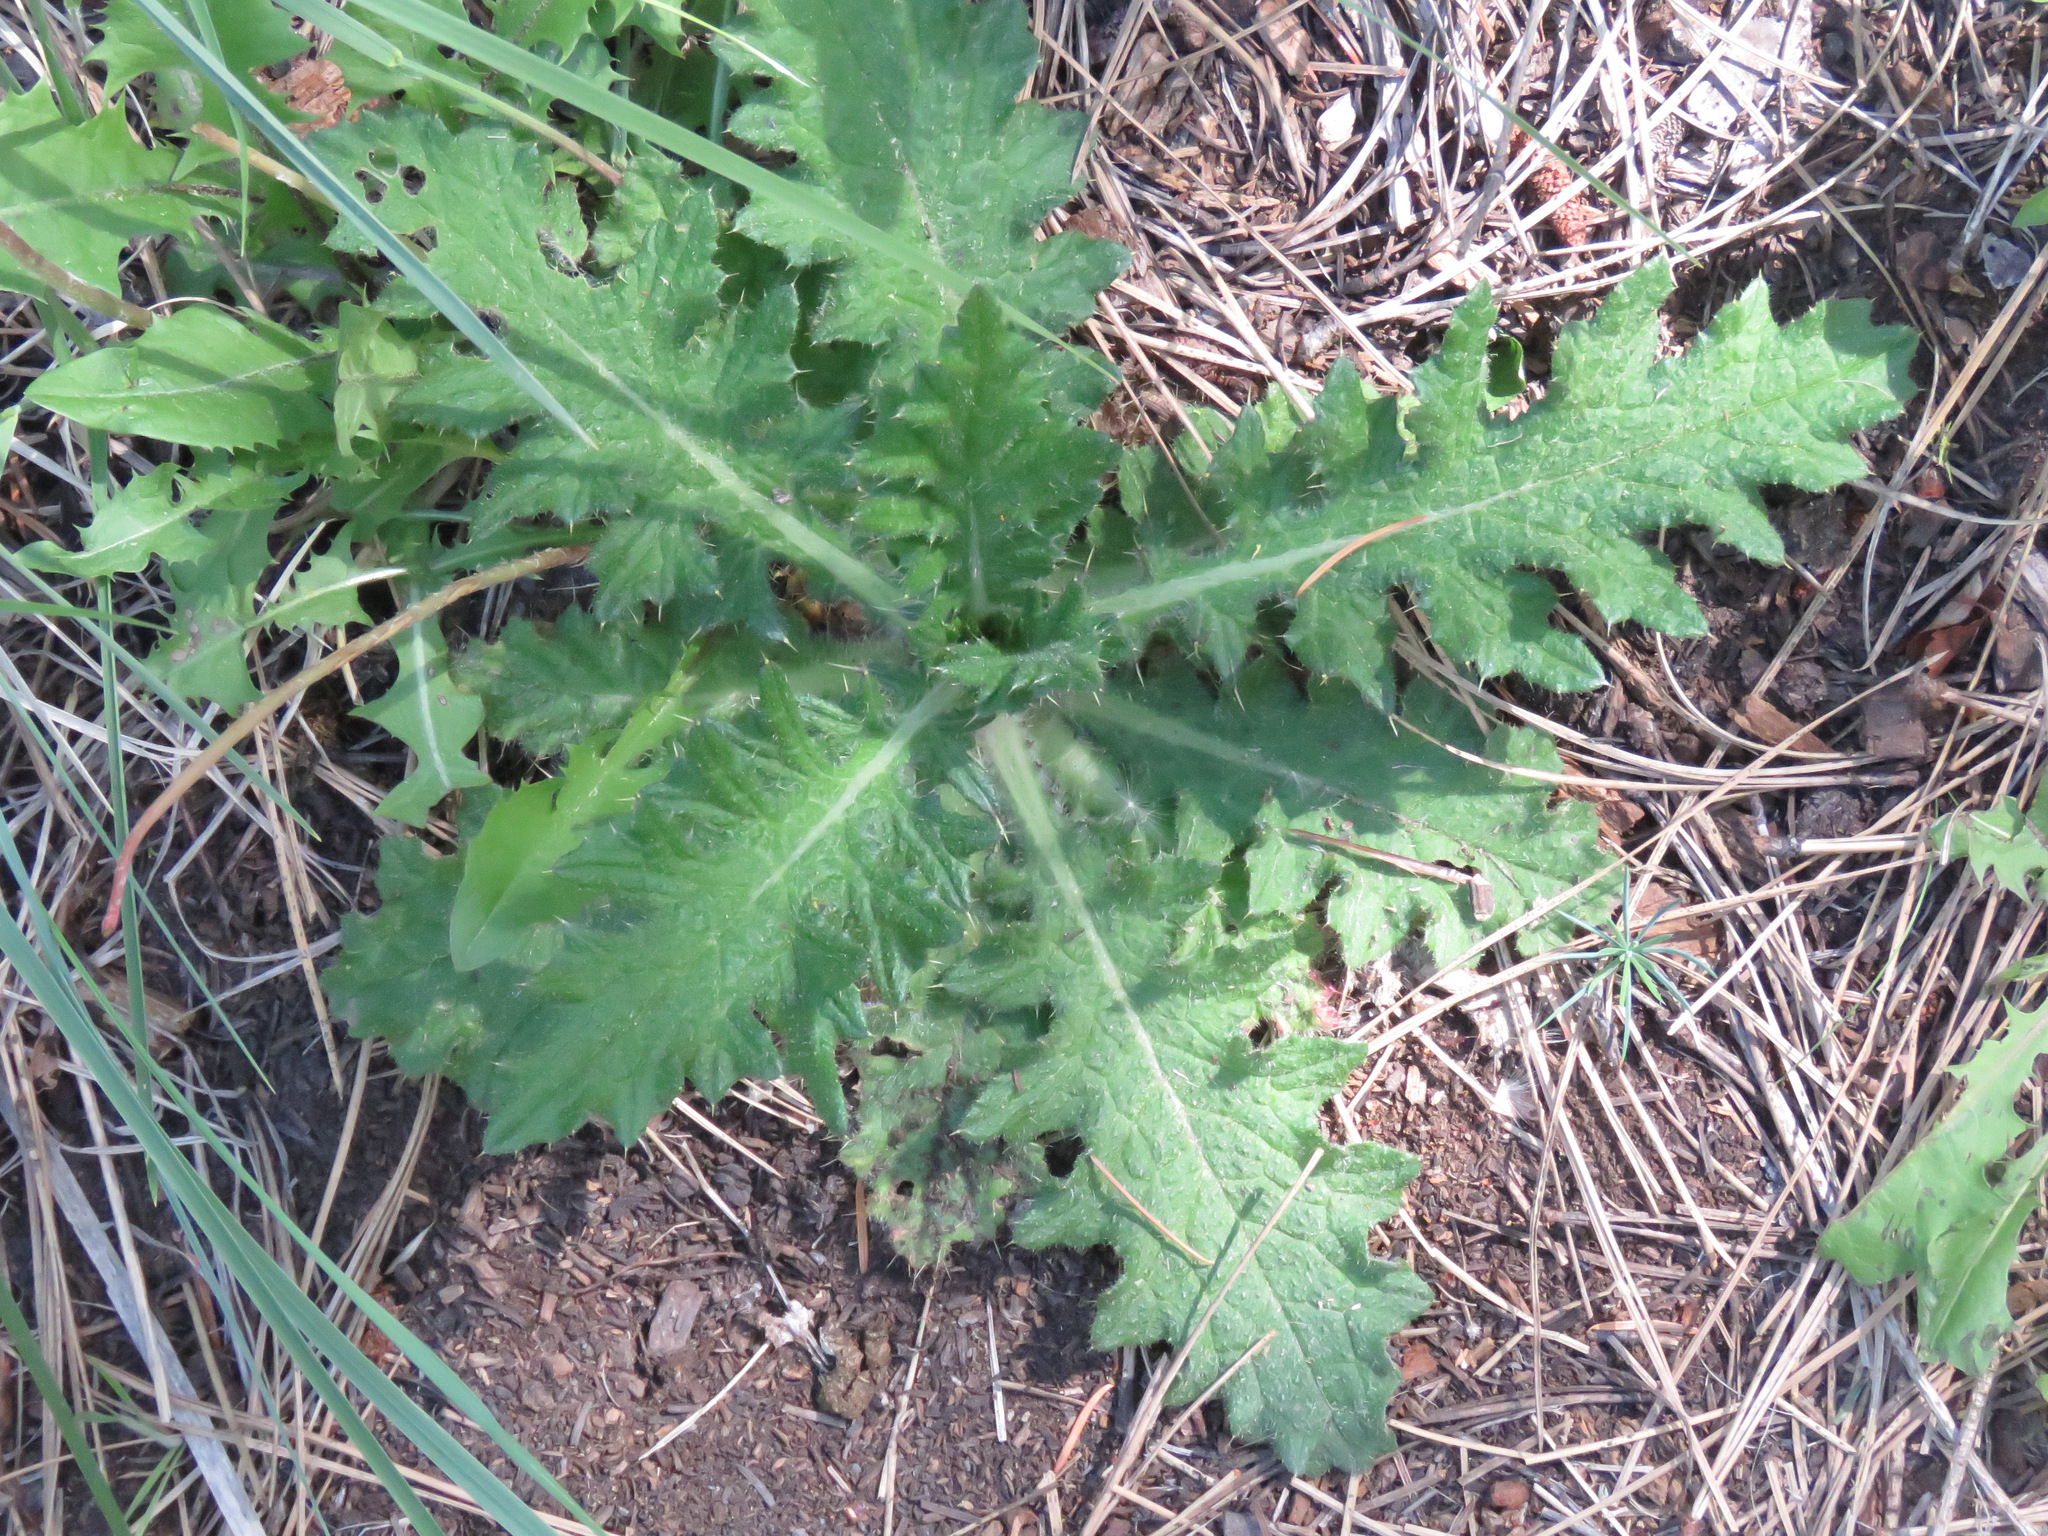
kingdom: Plantae
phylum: Tracheophyta
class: Magnoliopsida
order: Asterales
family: Asteraceae
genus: Cirsium
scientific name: Cirsium vulgare
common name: Bull thistle
